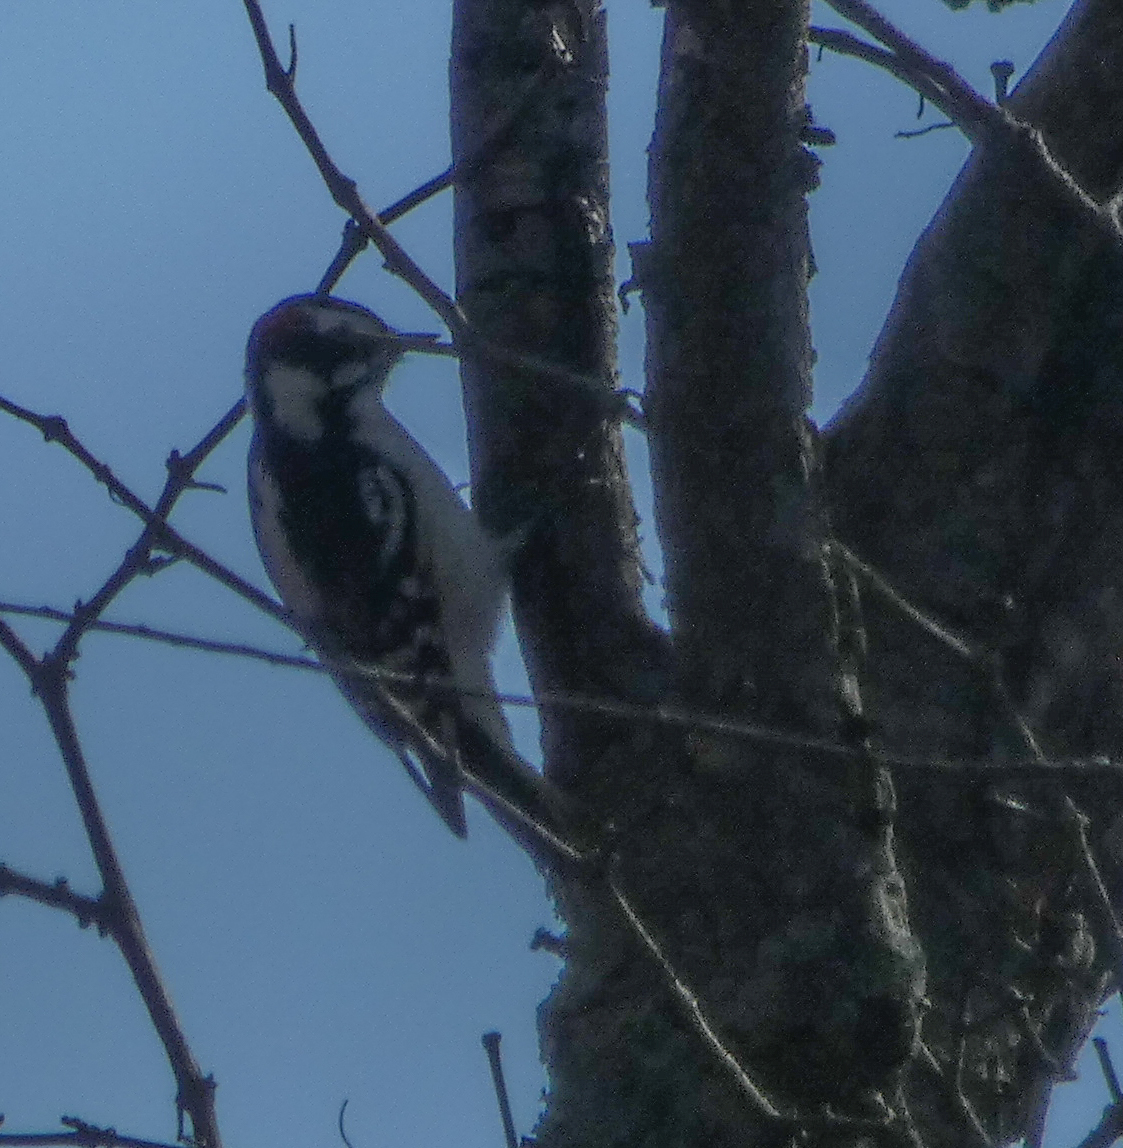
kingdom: Animalia
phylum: Chordata
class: Aves
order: Piciformes
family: Picidae
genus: Dryobates
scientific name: Dryobates pubescens
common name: Downy woodpecker
